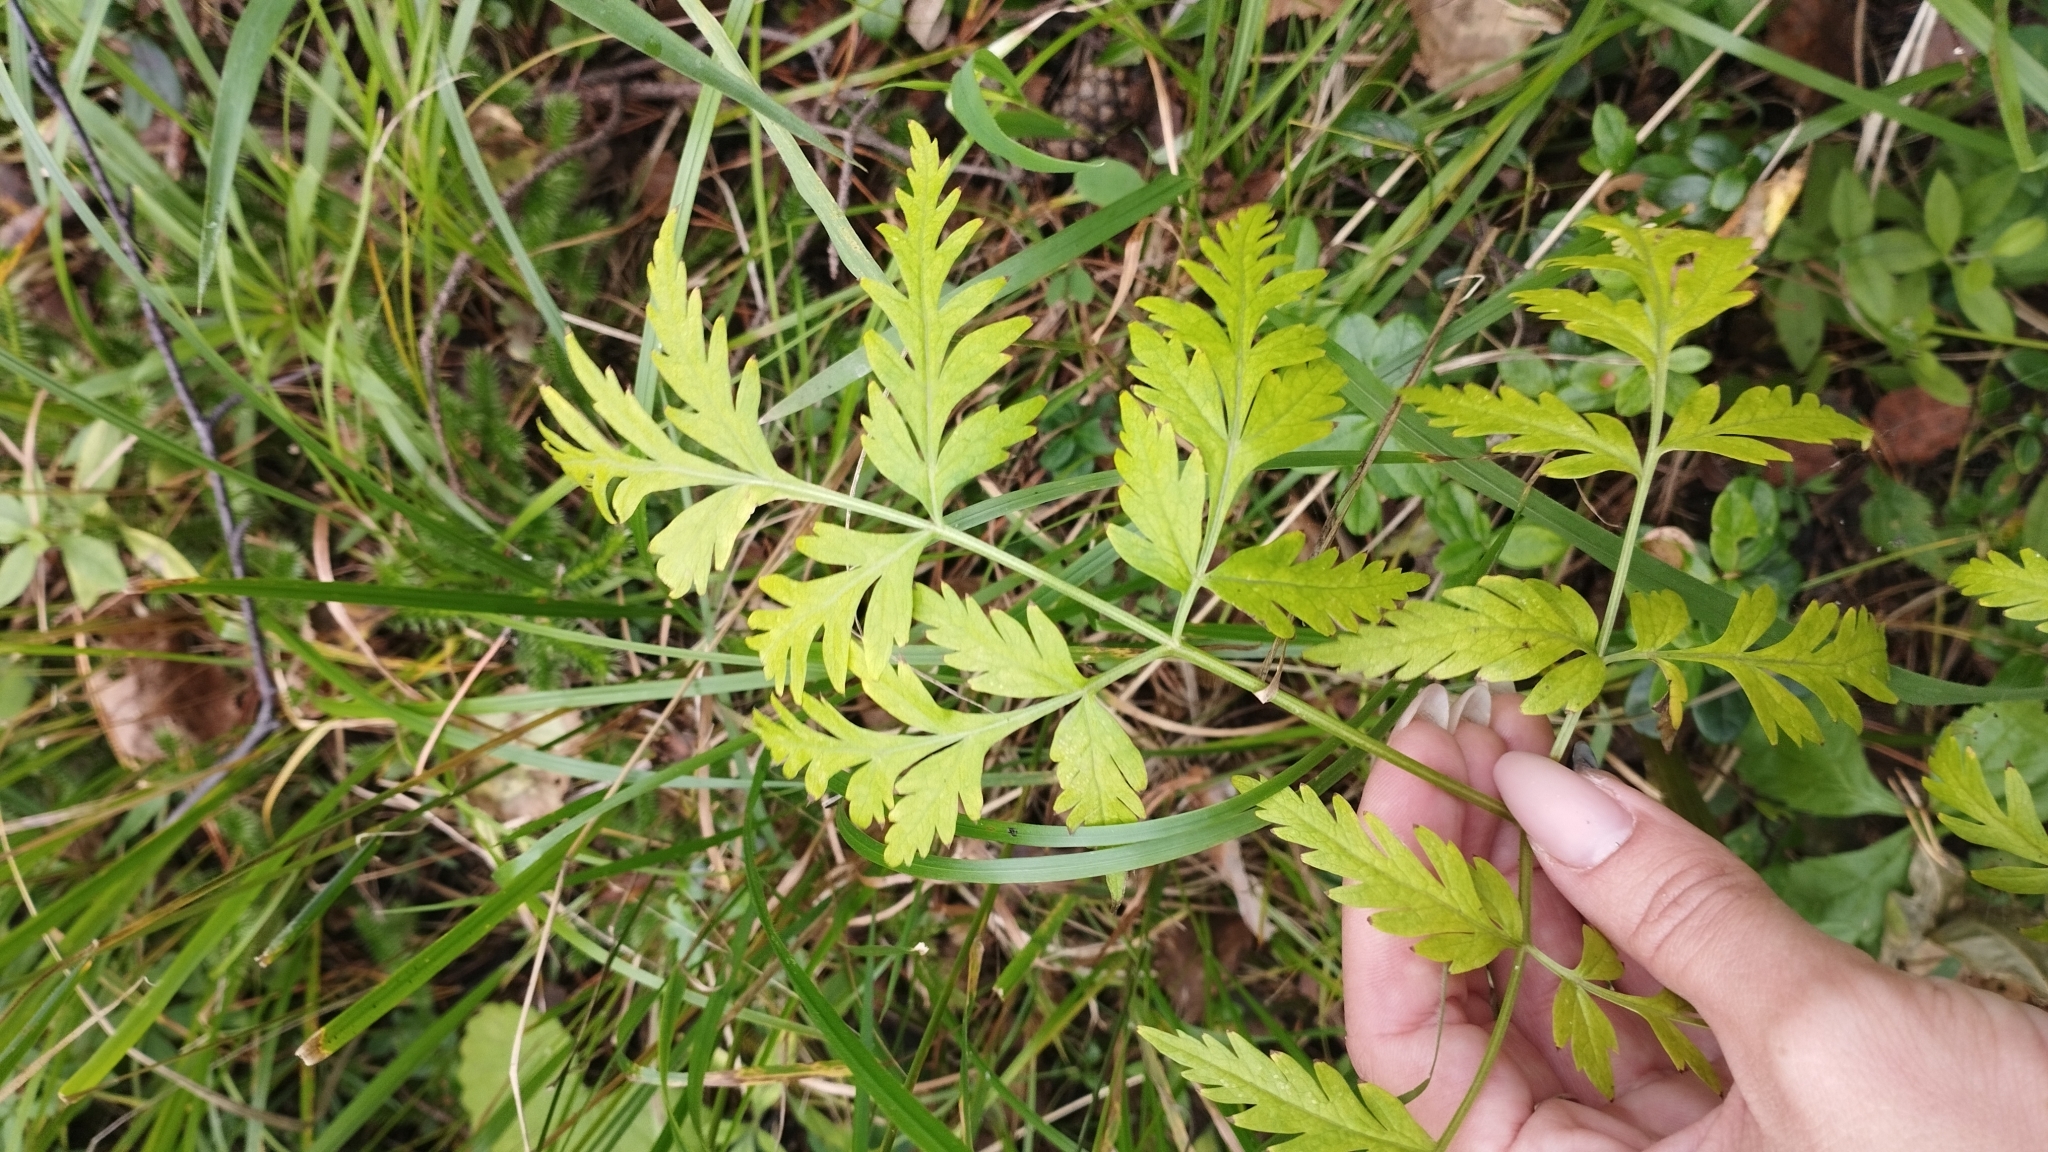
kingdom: Plantae
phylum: Tracheophyta
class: Magnoliopsida
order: Apiales
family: Apiaceae
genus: Pleurospermum
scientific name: Pleurospermum uralense
